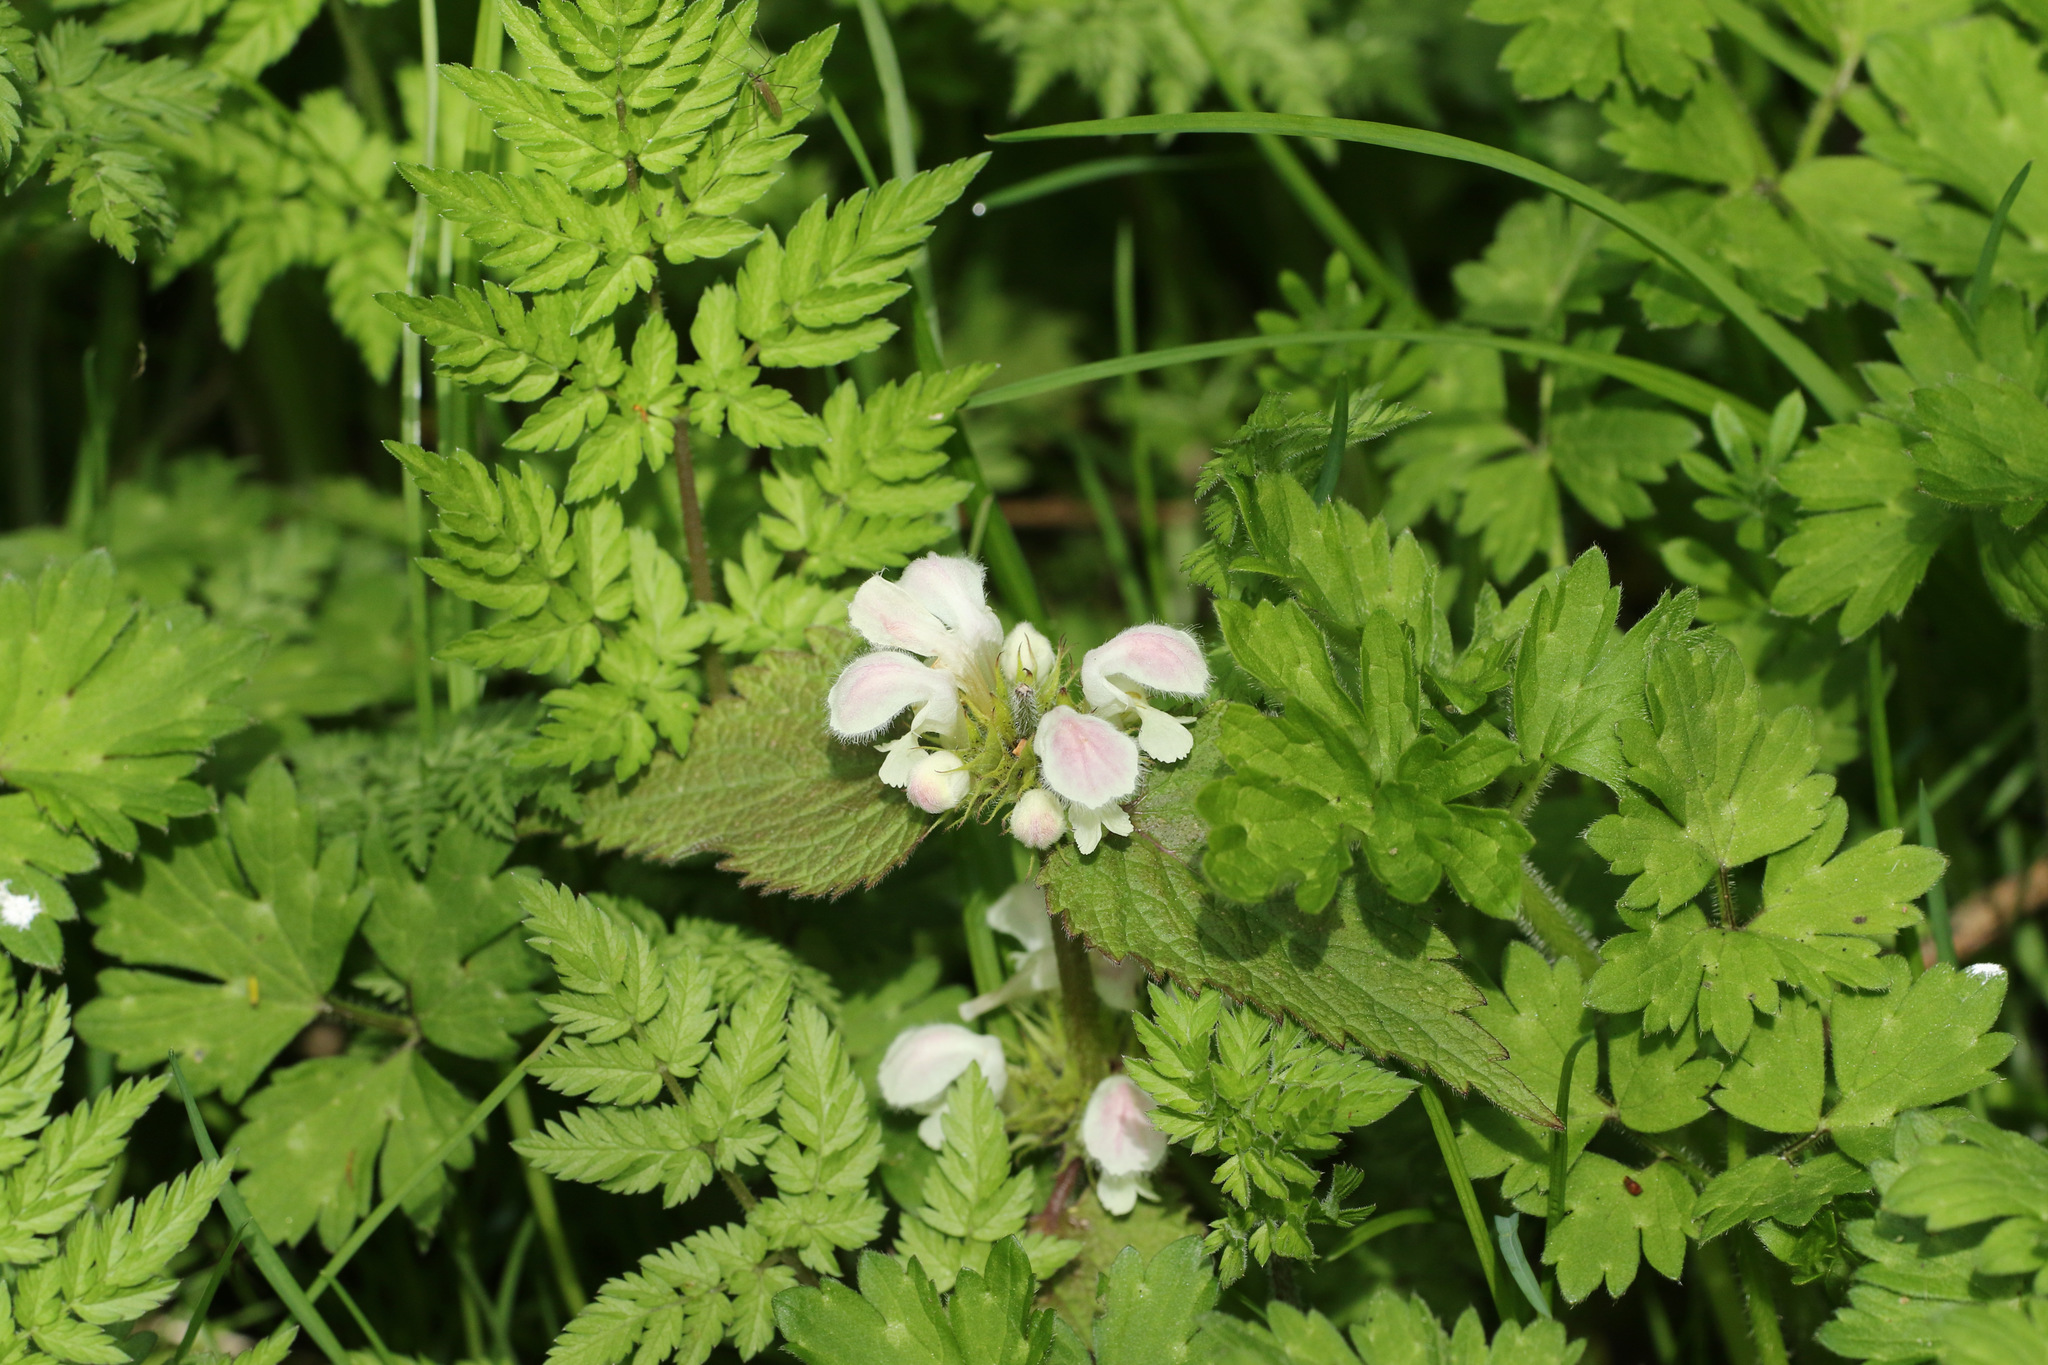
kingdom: Plantae
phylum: Tracheophyta
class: Magnoliopsida
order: Lamiales
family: Lamiaceae
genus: Lamium
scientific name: Lamium album
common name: White dead-nettle
